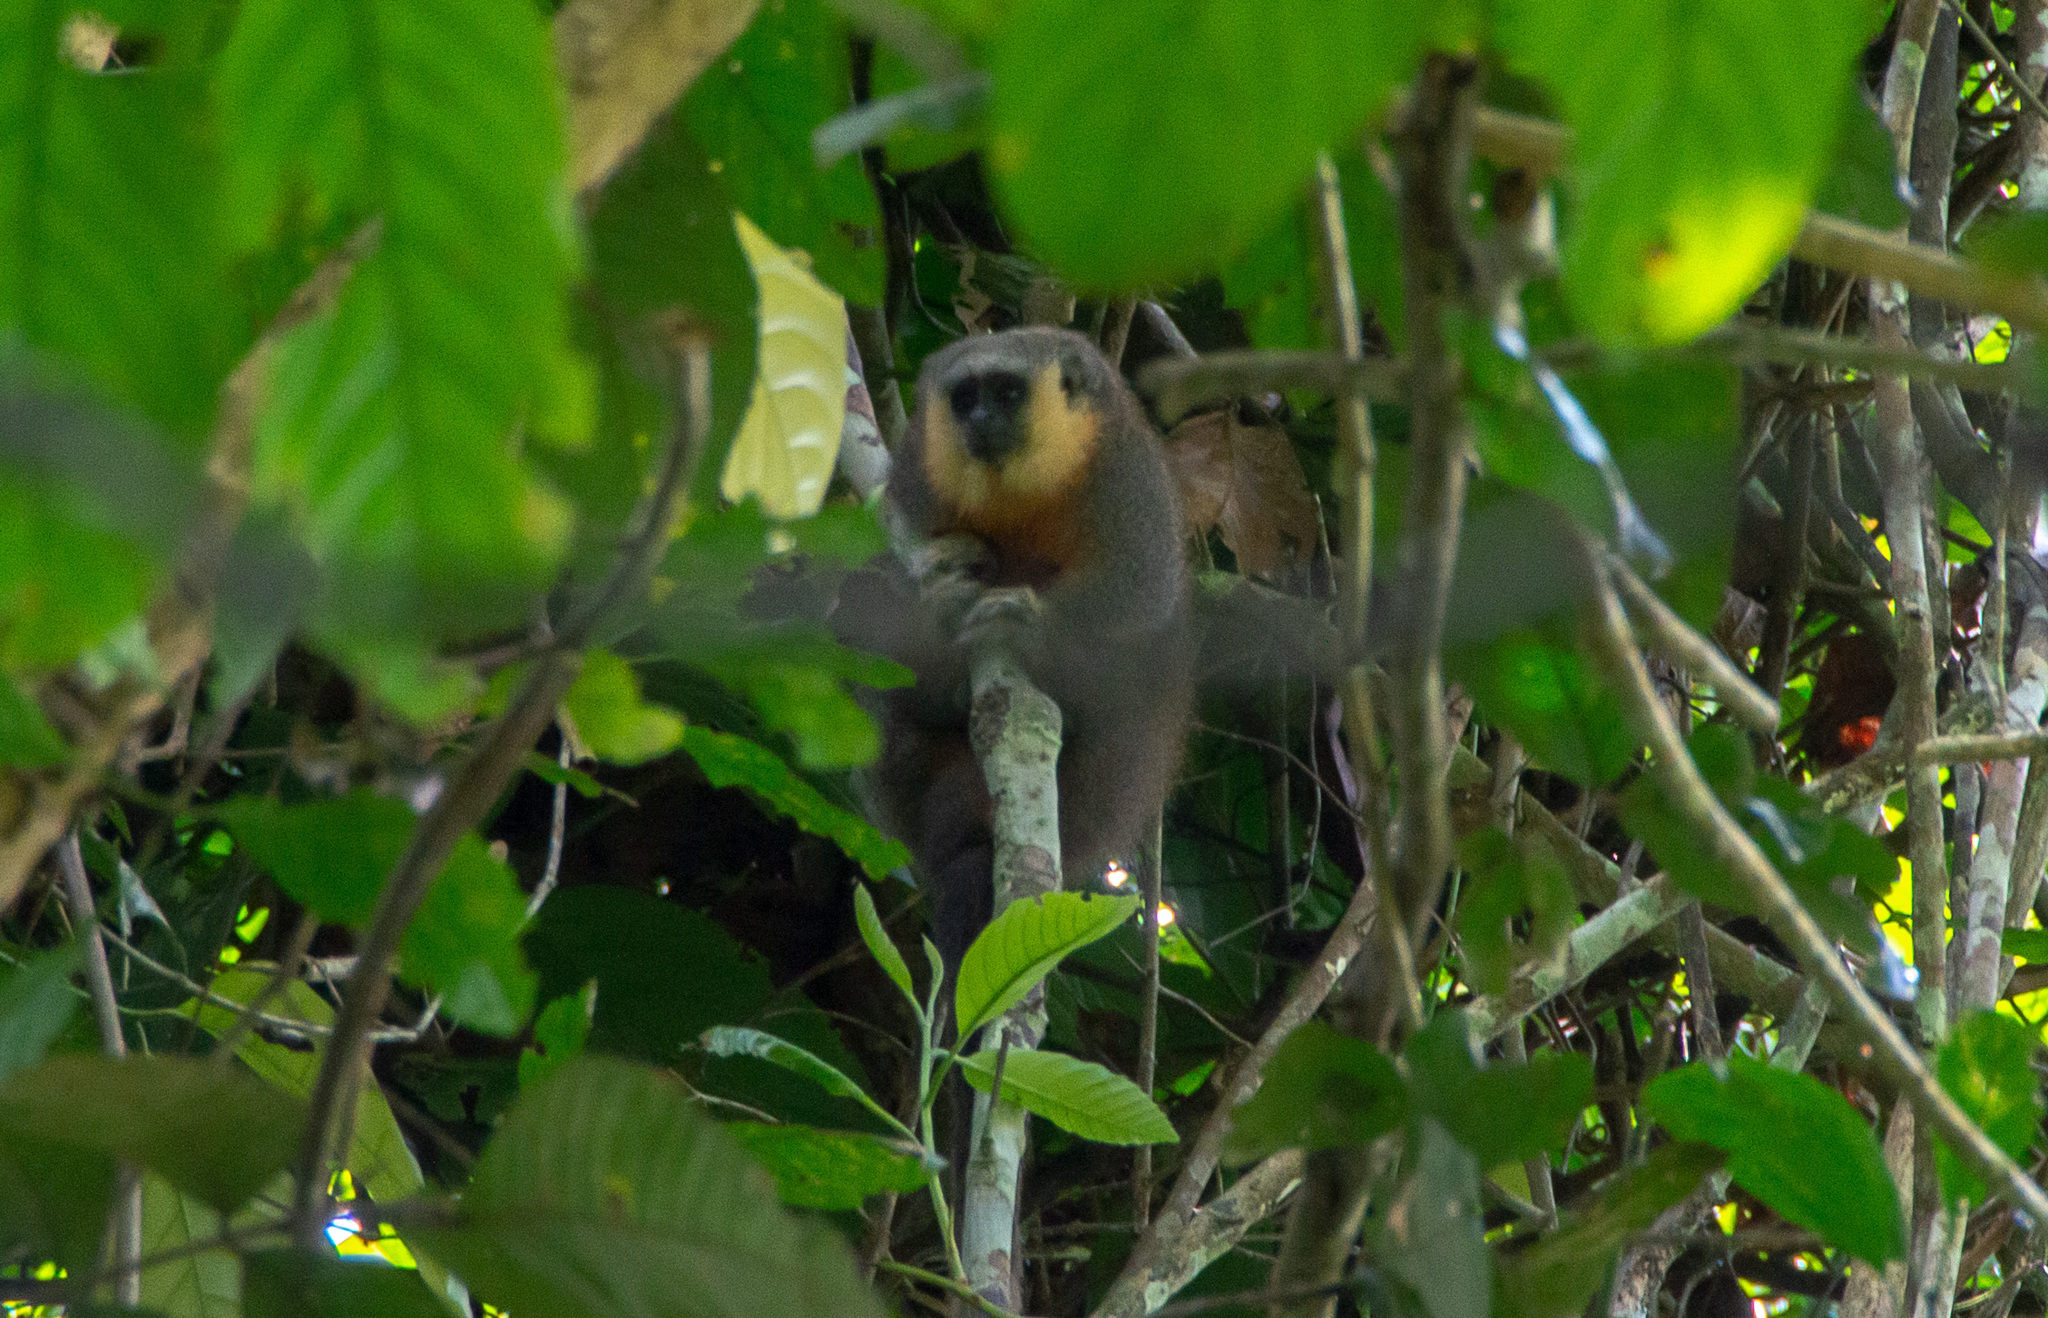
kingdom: Animalia
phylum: Chordata
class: Mammalia
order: Primates
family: Pitheciidae
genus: Plecturocebus
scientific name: Plecturocebus vieirai
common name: Vieira's titi
